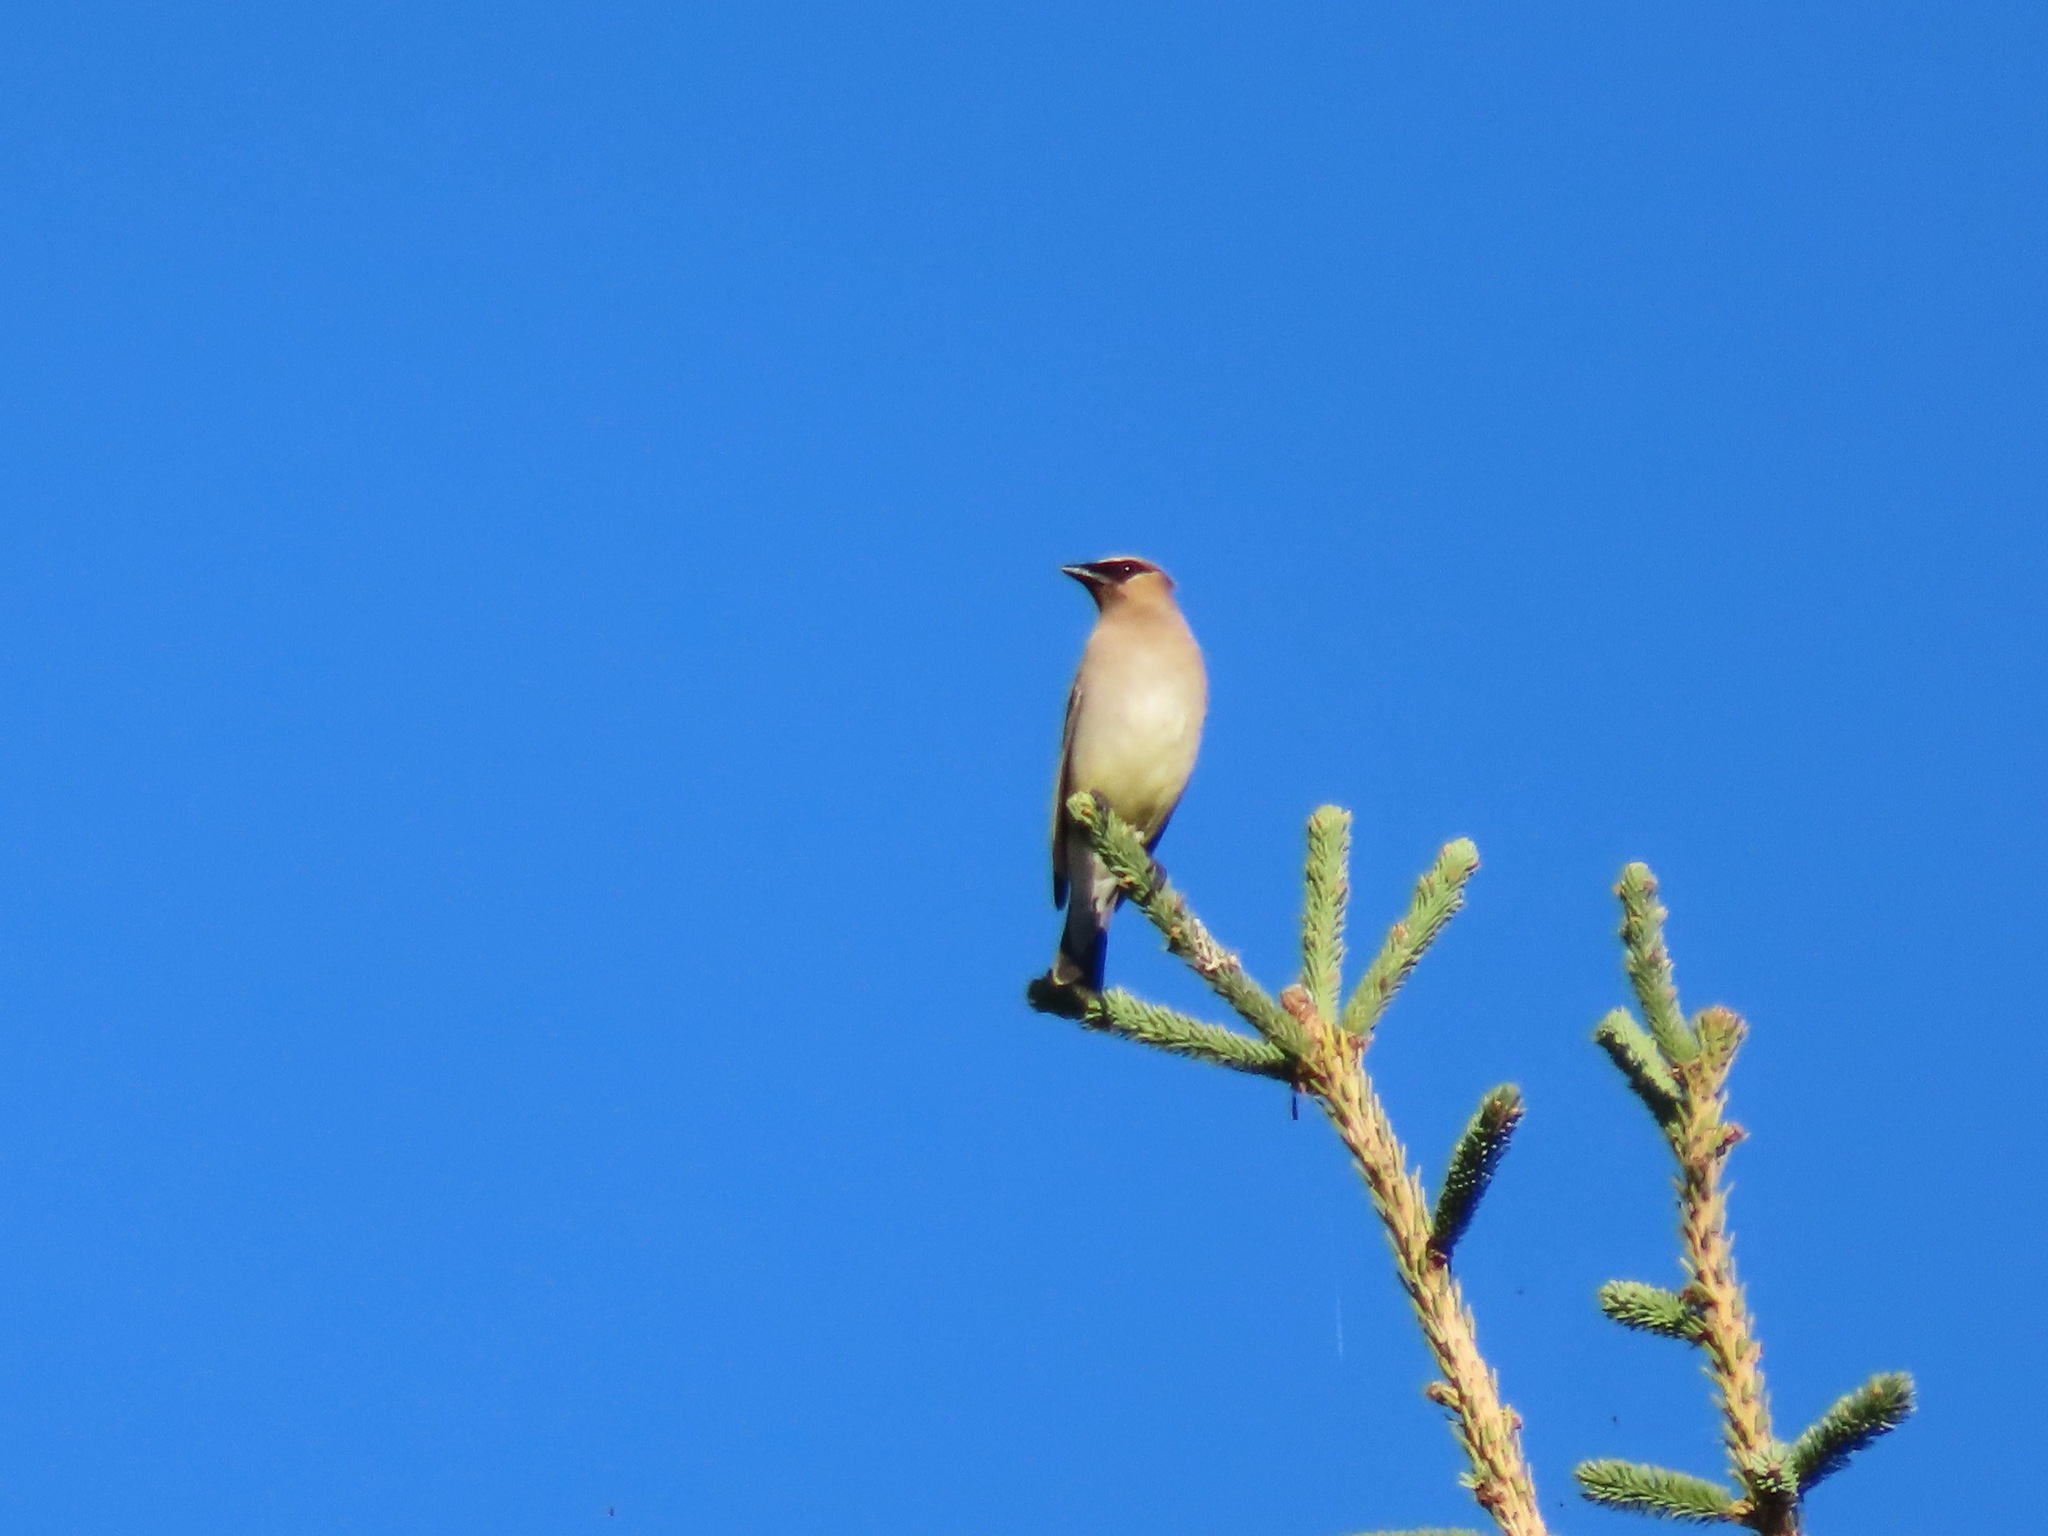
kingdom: Animalia
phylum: Chordata
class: Aves
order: Passeriformes
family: Bombycillidae
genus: Bombycilla
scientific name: Bombycilla cedrorum
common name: Cedar waxwing
